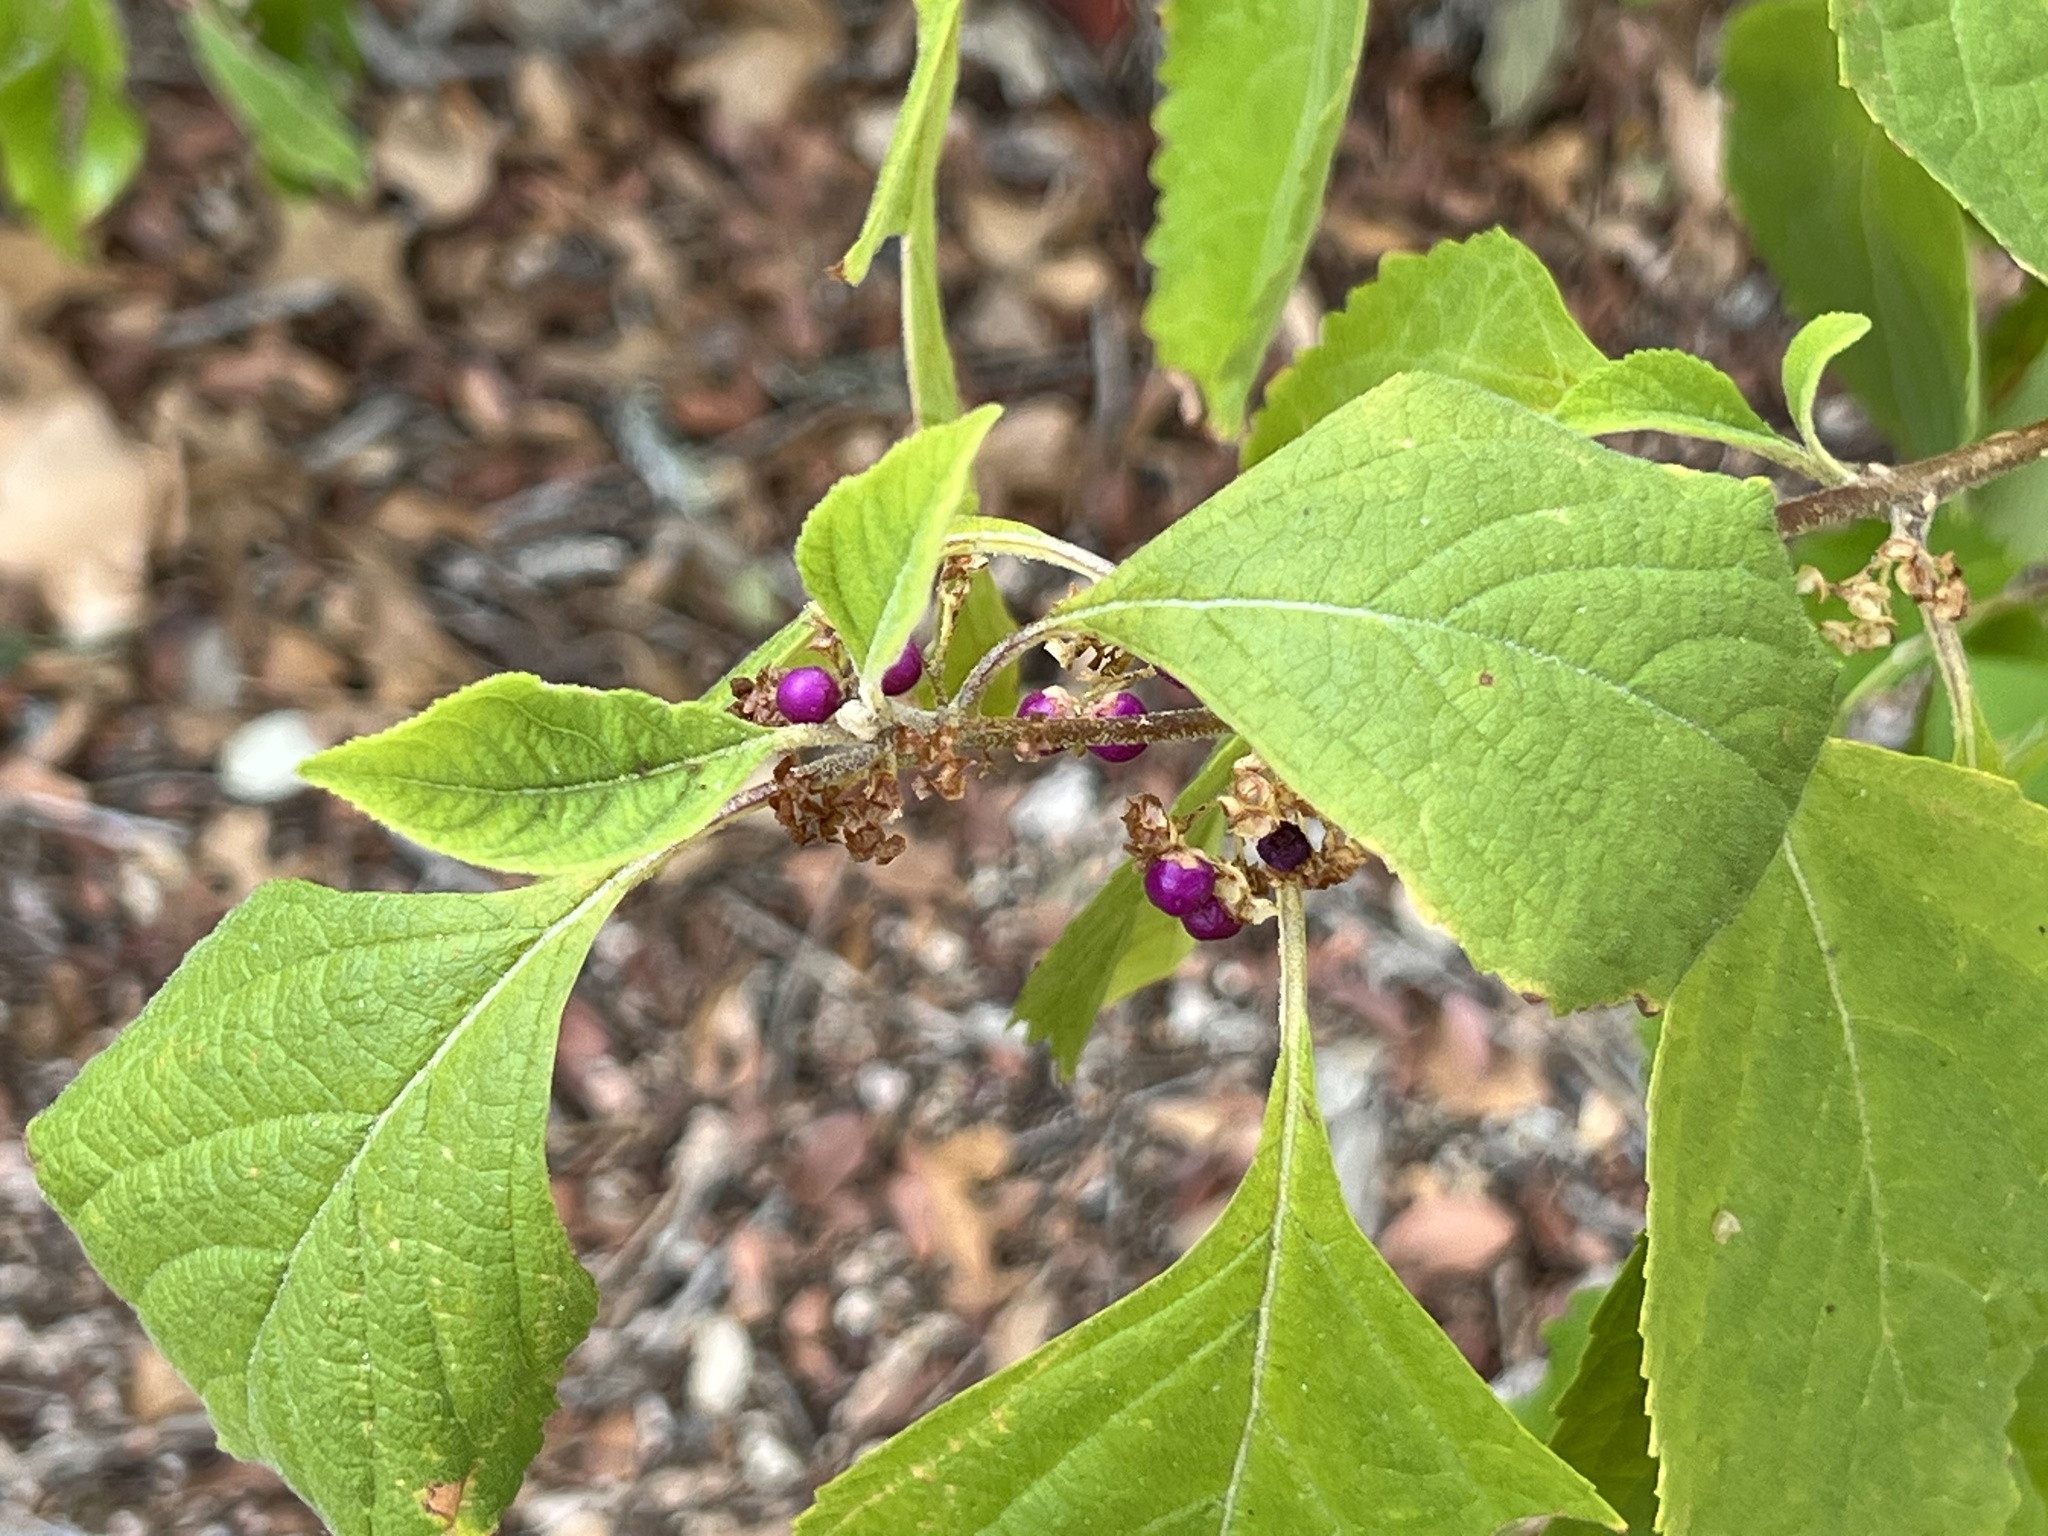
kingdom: Plantae
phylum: Tracheophyta
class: Magnoliopsida
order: Lamiales
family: Lamiaceae
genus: Callicarpa
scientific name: Callicarpa americana
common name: American beautyberry
